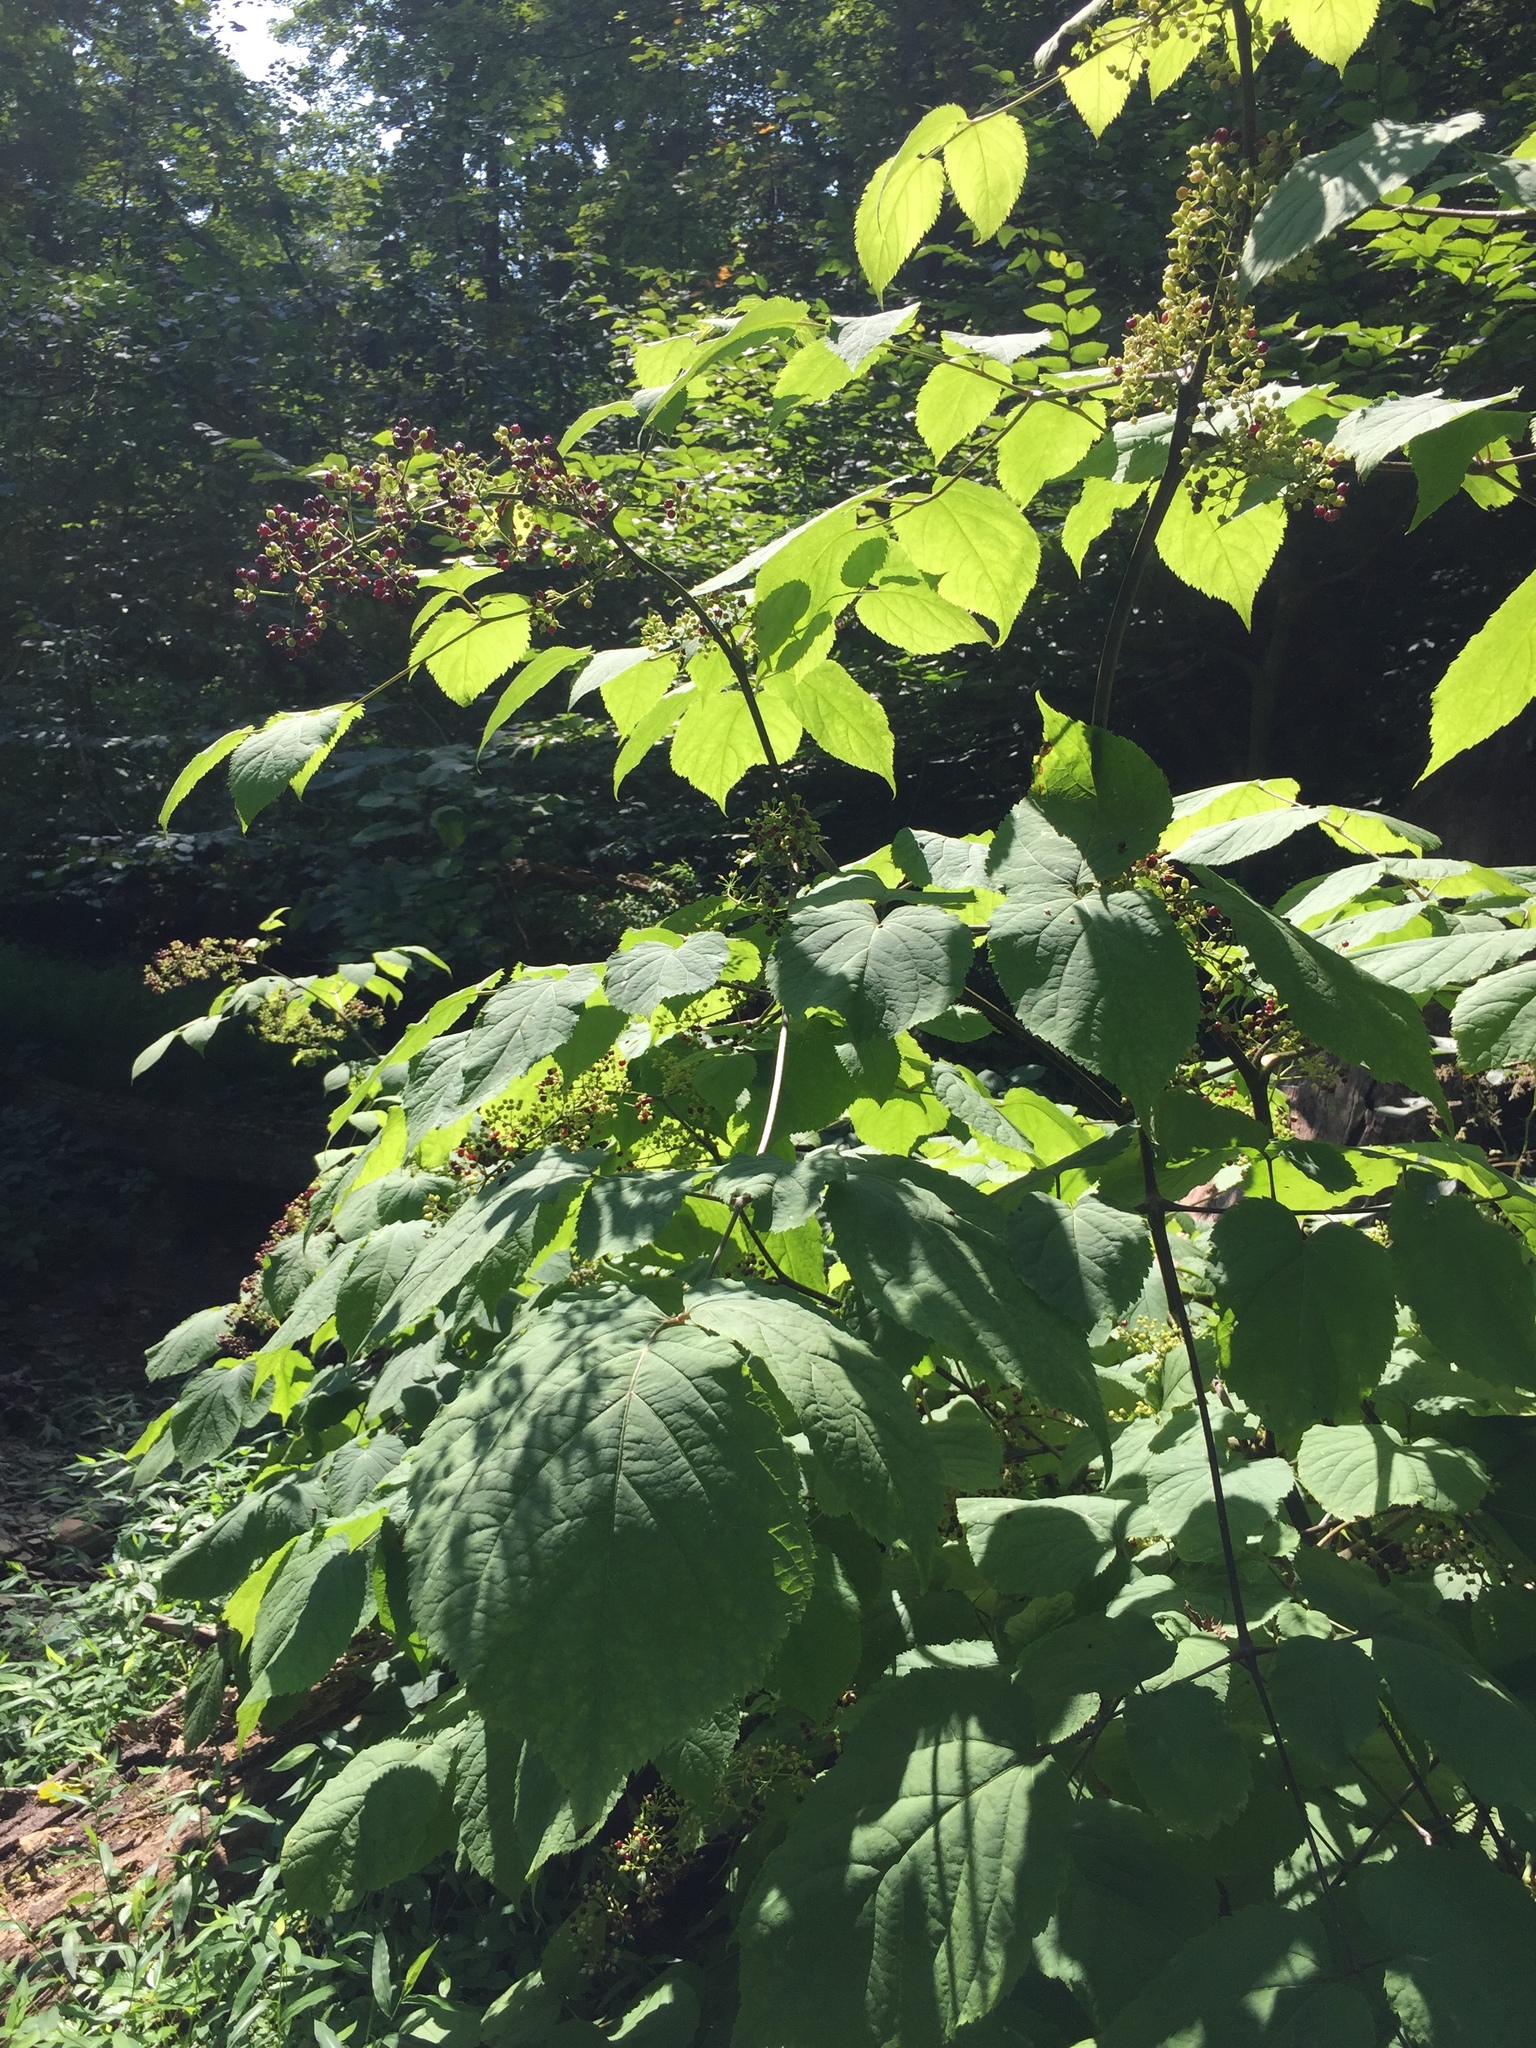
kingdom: Plantae
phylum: Tracheophyta
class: Magnoliopsida
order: Apiales
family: Araliaceae
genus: Aralia
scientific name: Aralia racemosa
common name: American-spikenard
